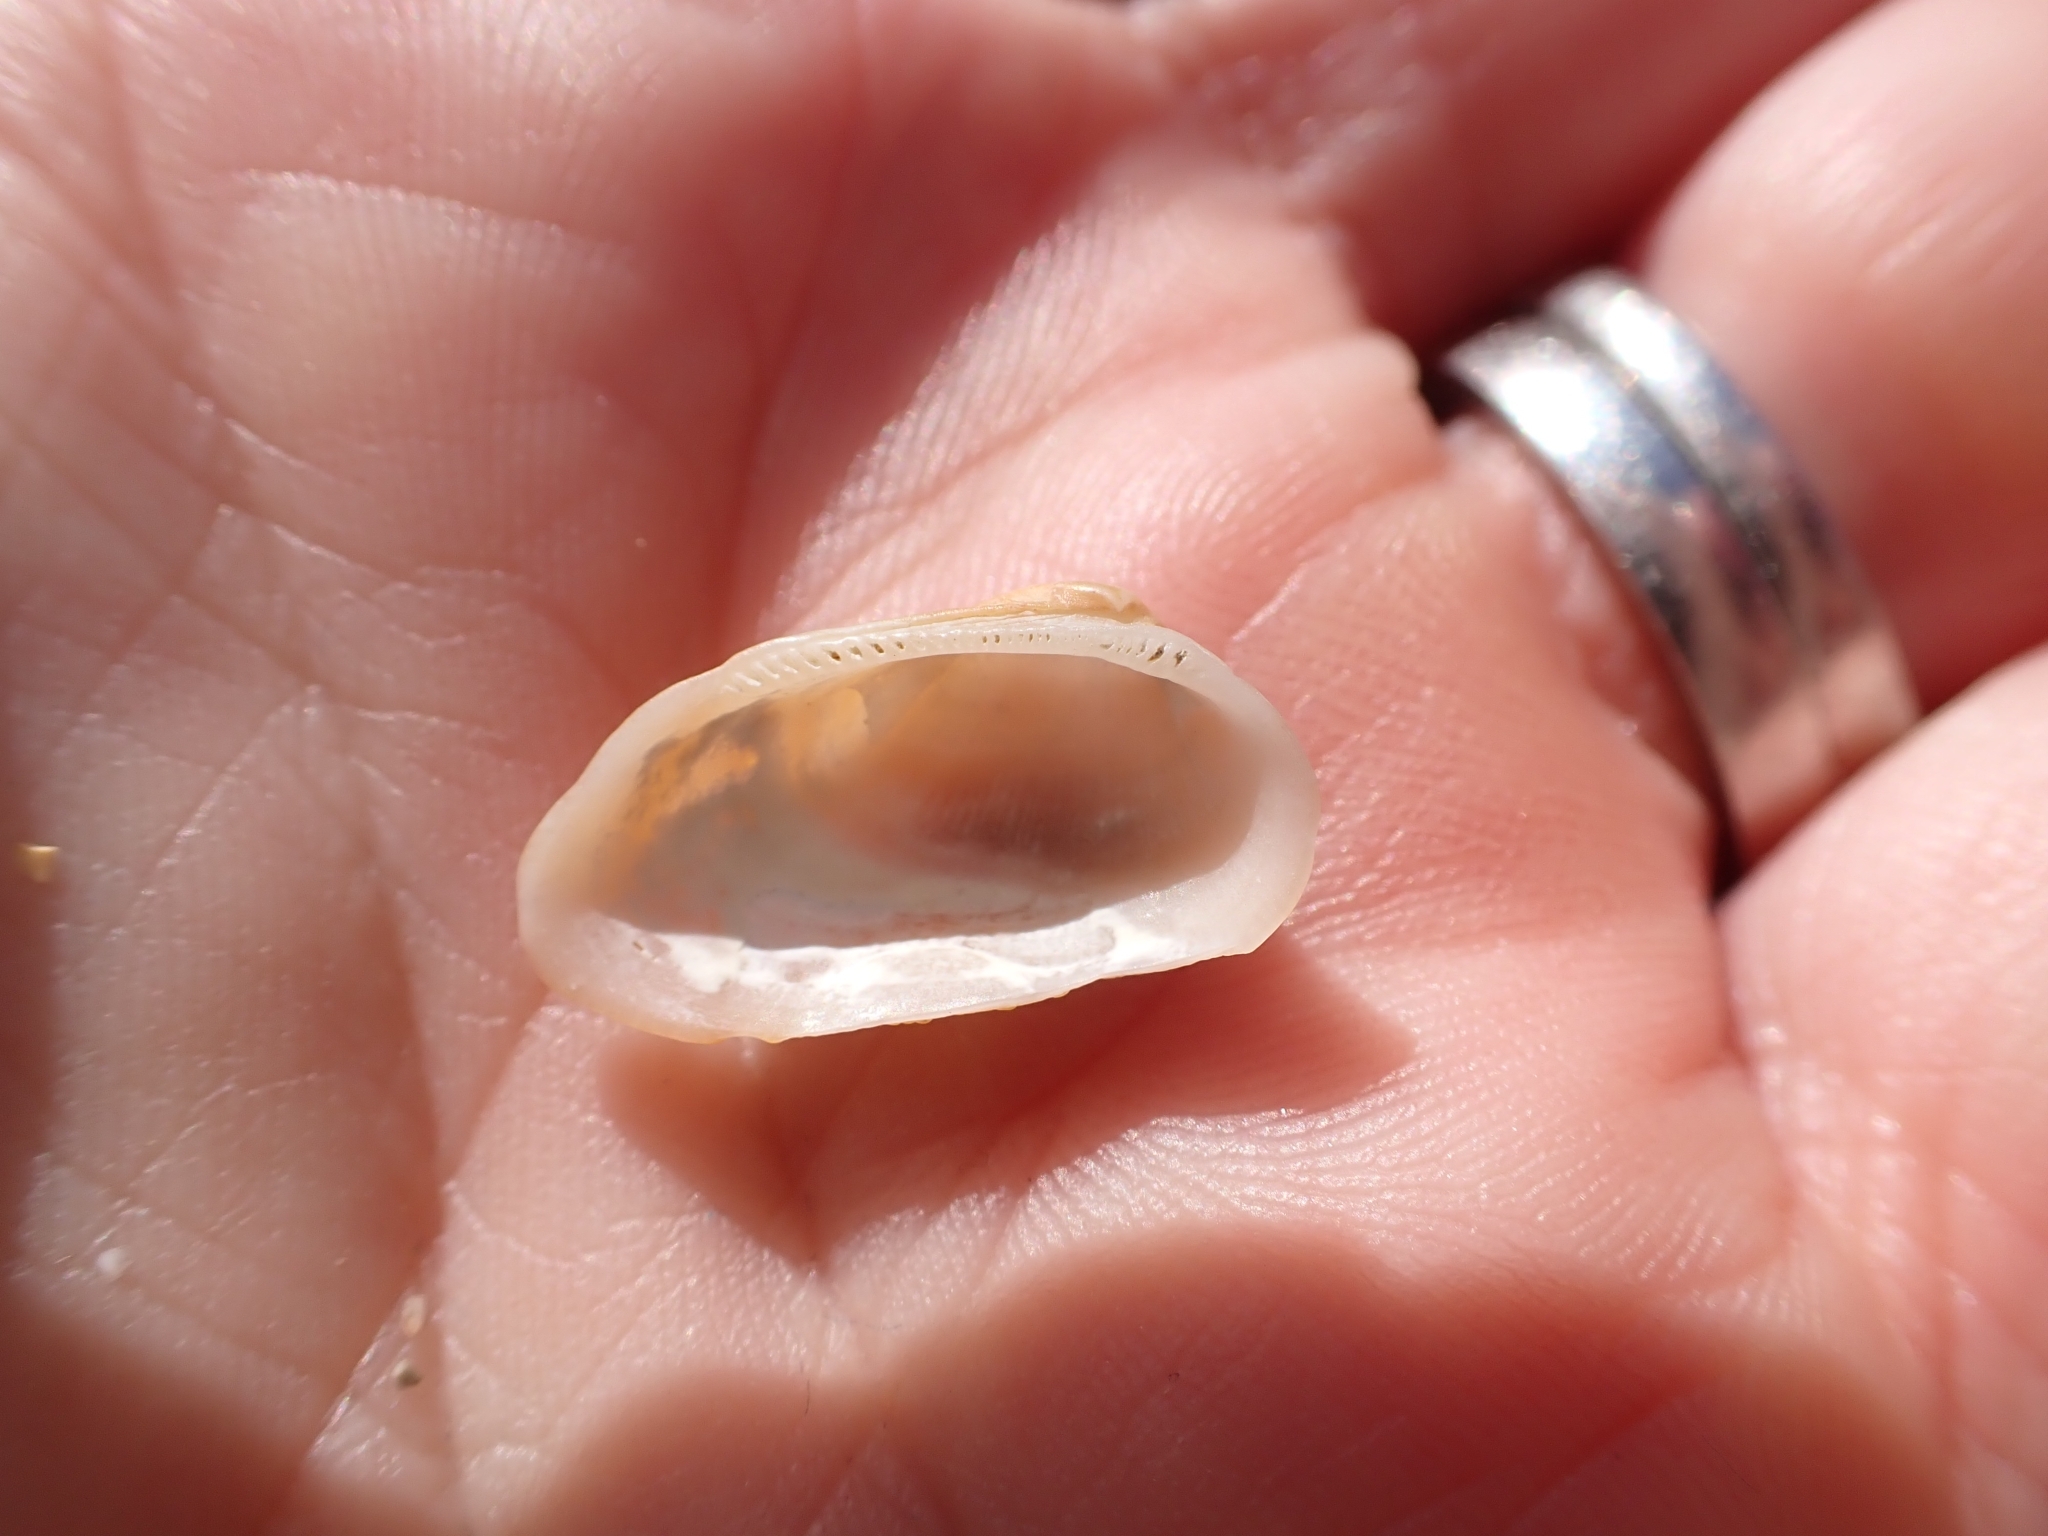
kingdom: Animalia
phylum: Mollusca
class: Bivalvia
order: Arcida
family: Arcidae
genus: Barbatia
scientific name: Barbatia barbata
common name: Bearded ark
